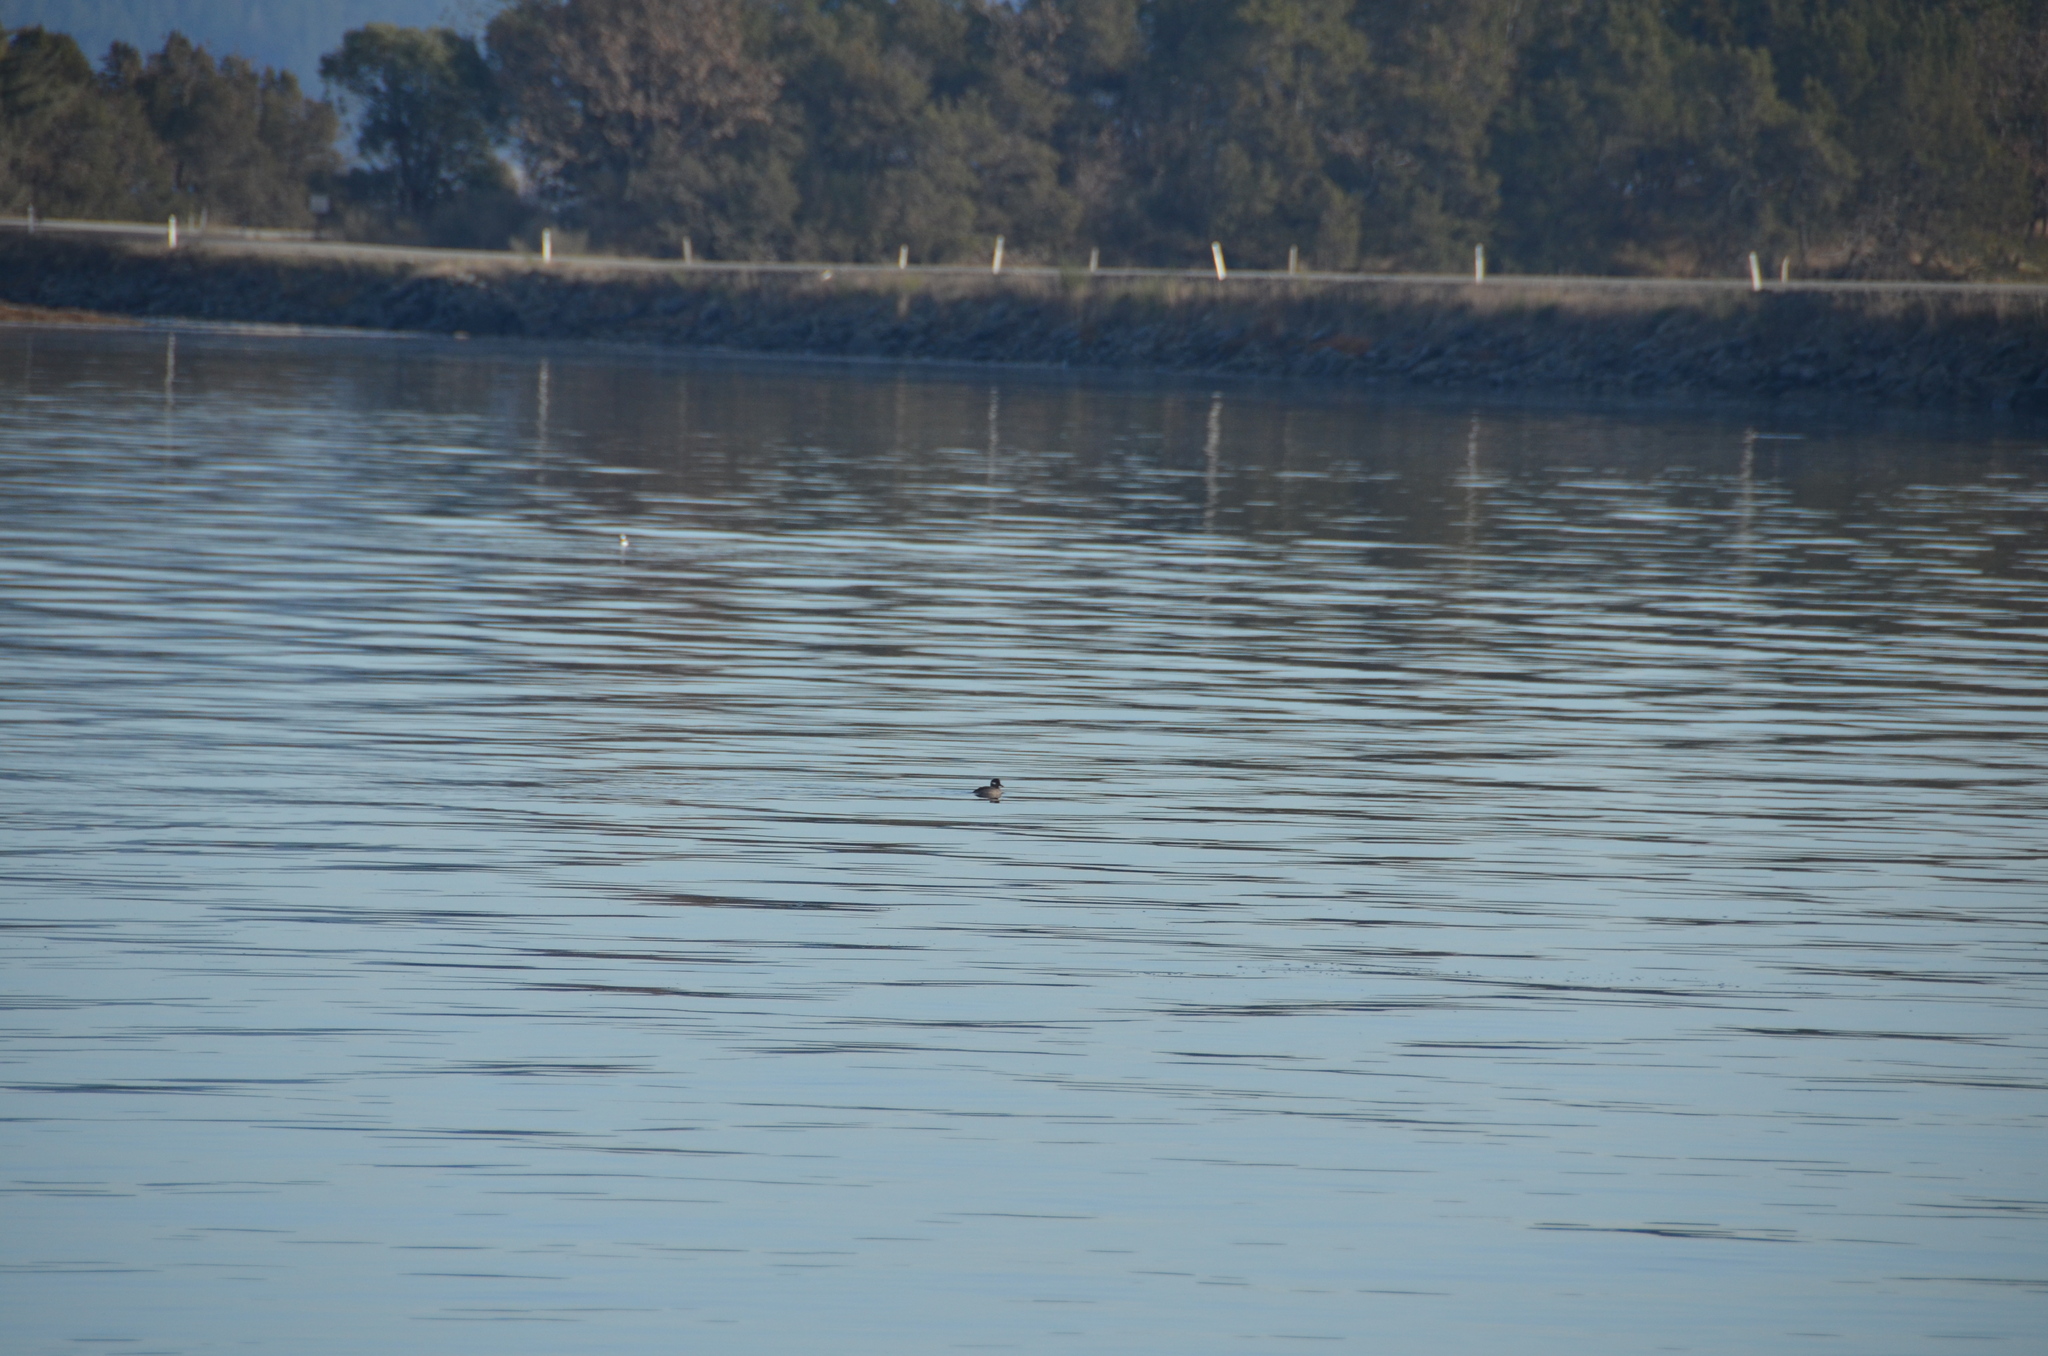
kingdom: Animalia
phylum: Chordata
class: Aves
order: Anseriformes
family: Anatidae
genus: Bucephala
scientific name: Bucephala albeola
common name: Bufflehead
